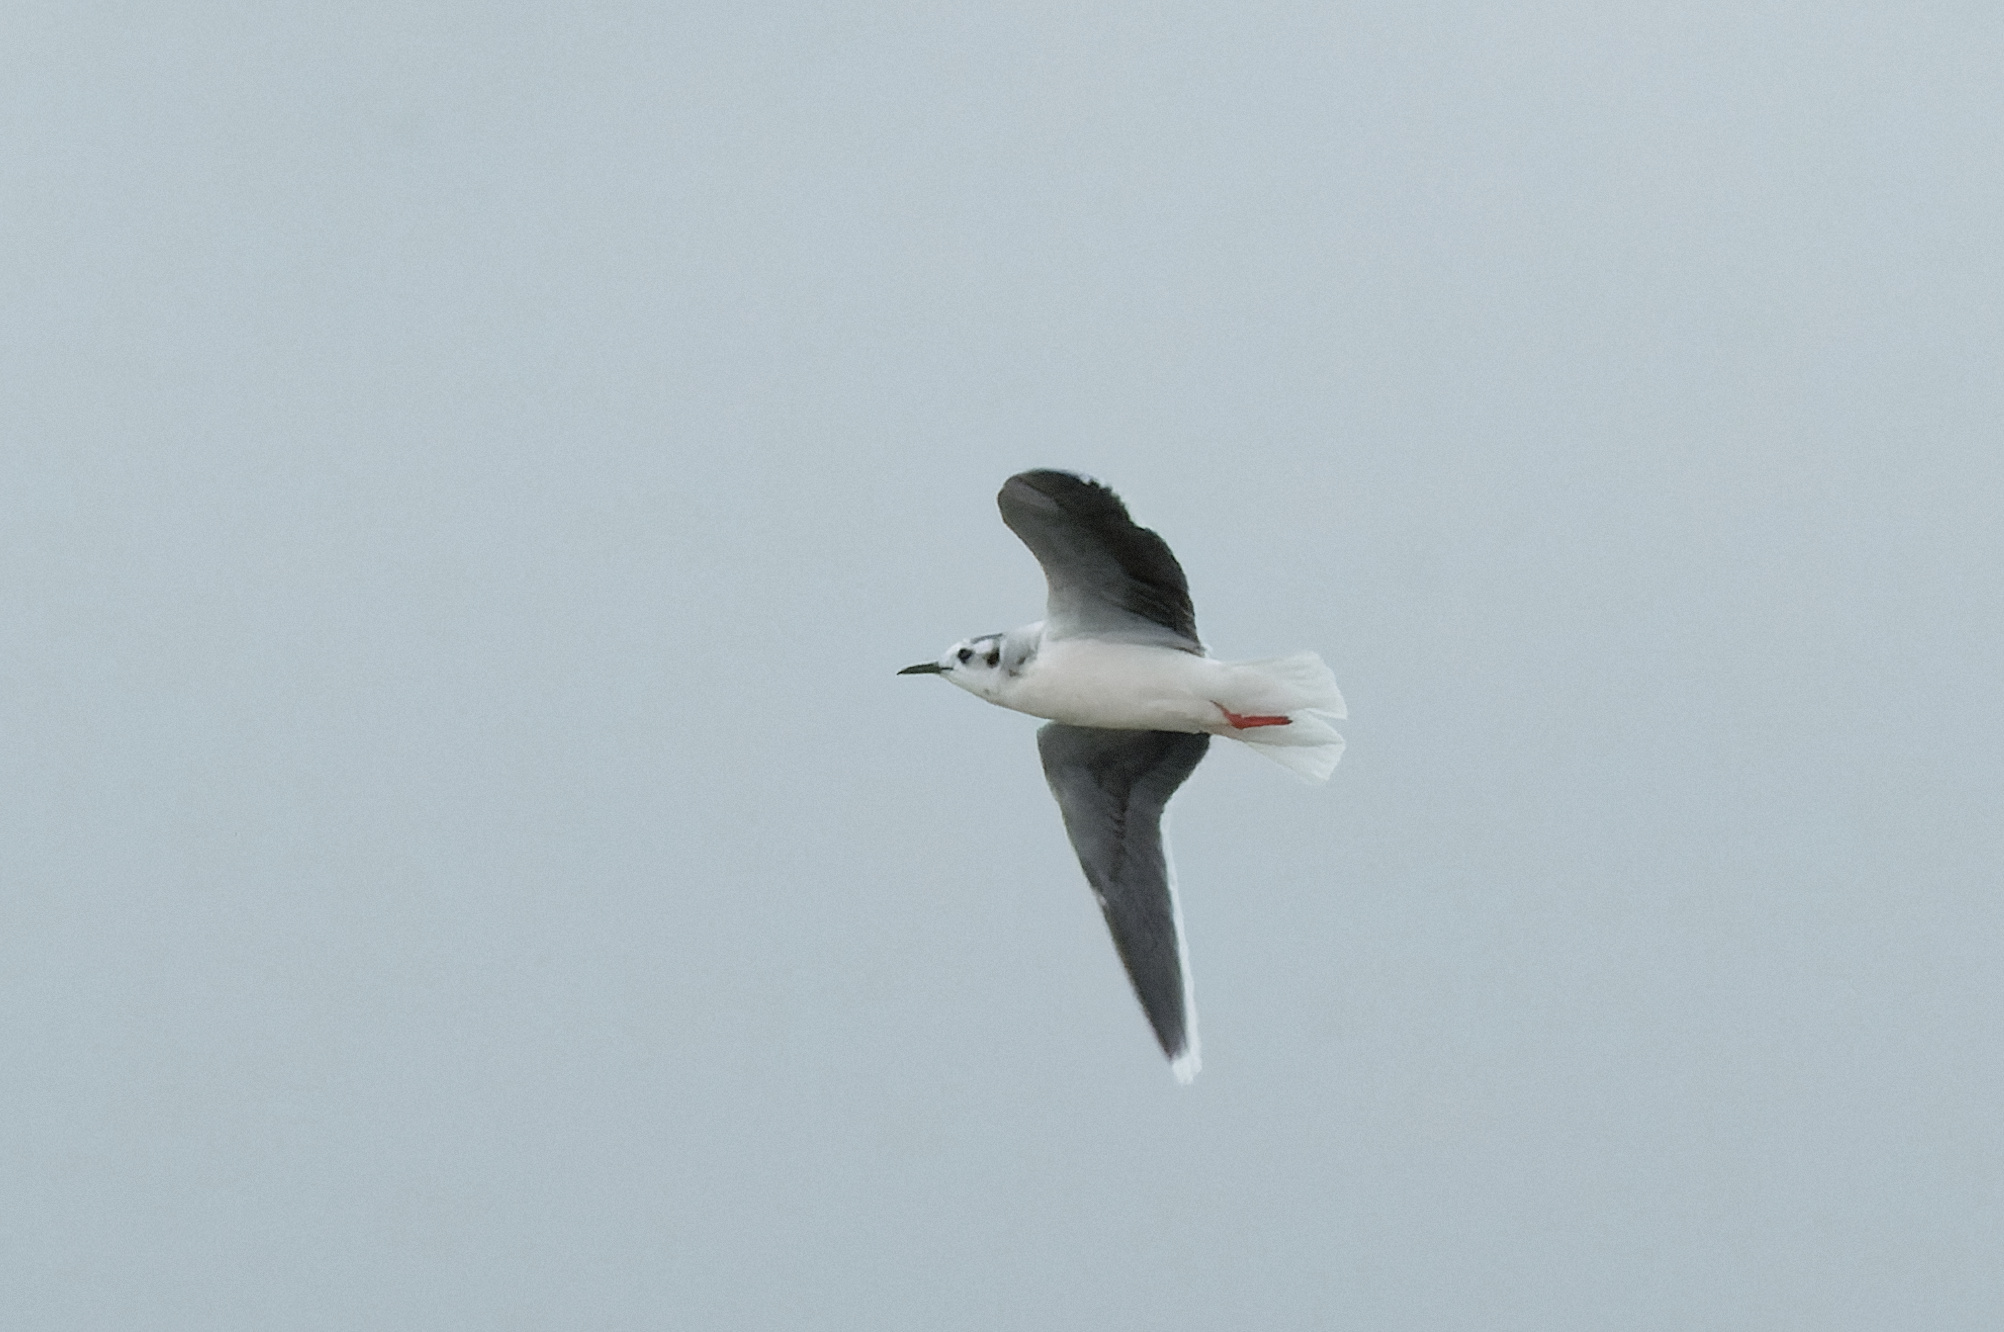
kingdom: Animalia
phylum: Chordata
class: Aves
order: Charadriiformes
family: Laridae
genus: Hydrocoloeus
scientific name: Hydrocoloeus minutus
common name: Little gull
